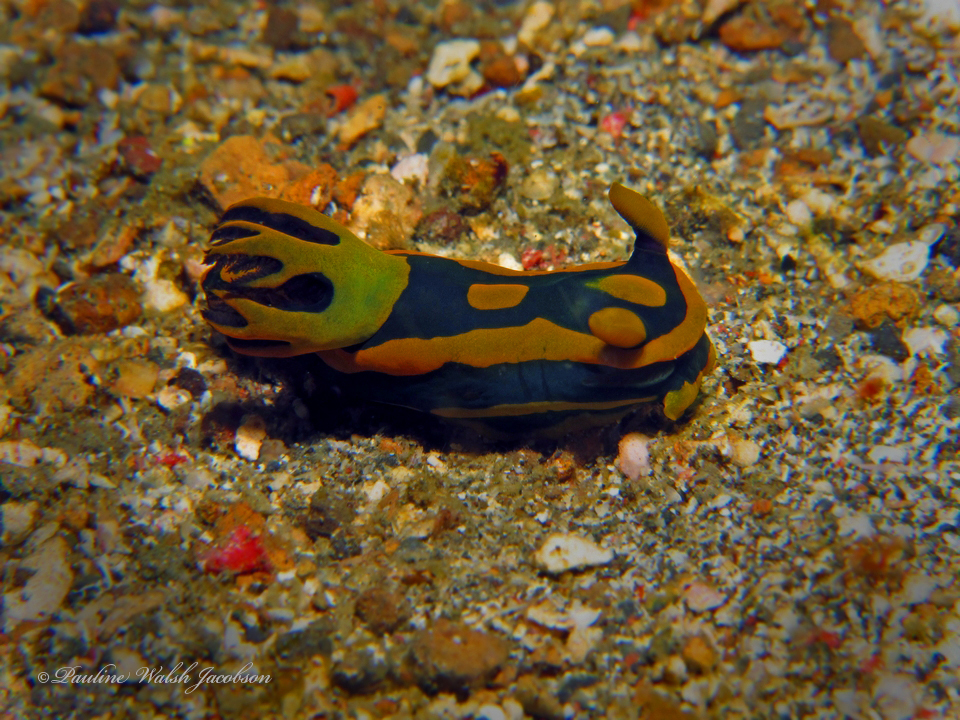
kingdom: Animalia
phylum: Mollusca
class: Gastropoda
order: Nudibranchia
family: Polyceridae
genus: Tambja
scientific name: Tambja gabrielae
